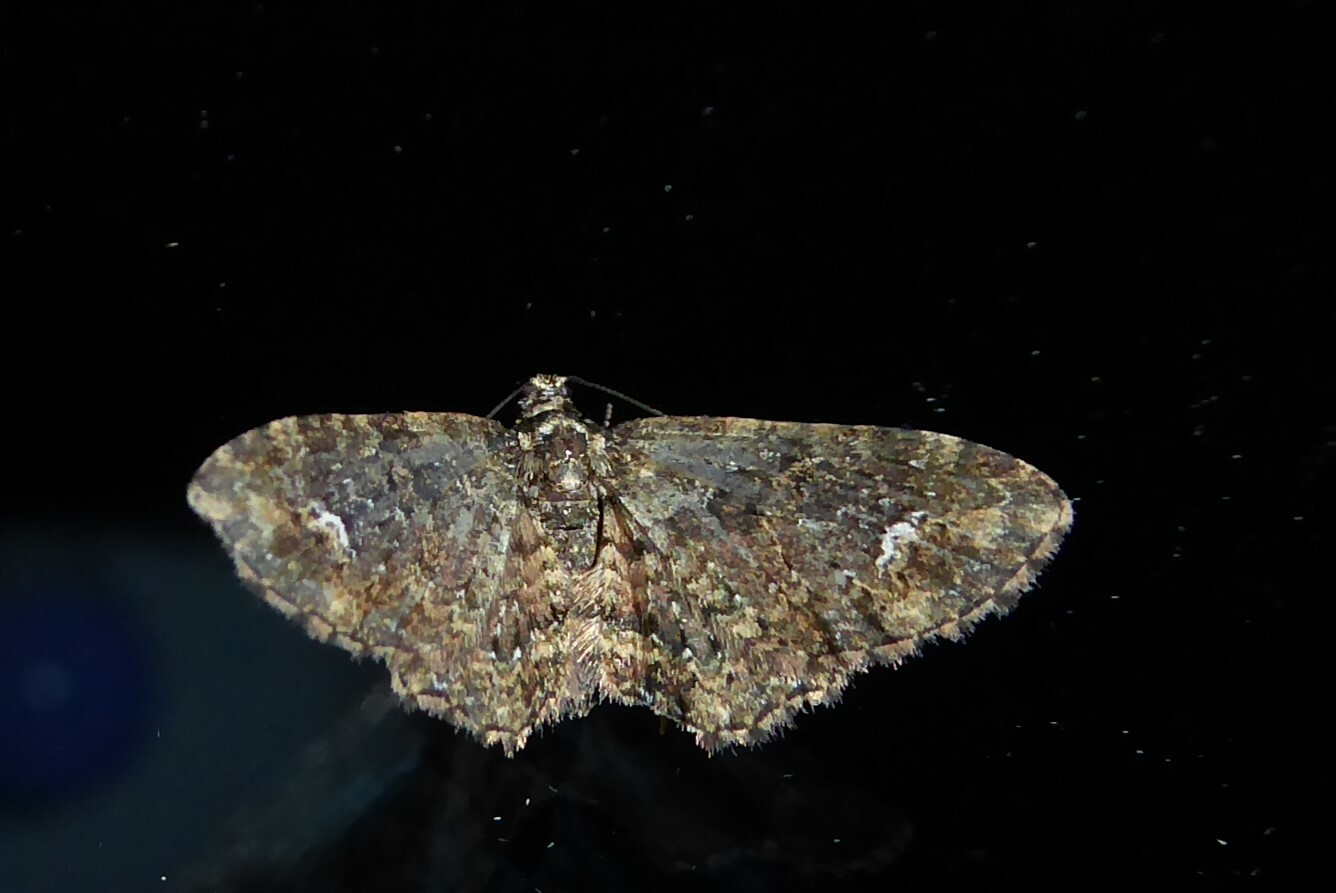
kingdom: Animalia
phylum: Arthropoda
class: Insecta
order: Lepidoptera
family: Geometridae
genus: Pasiphilodes
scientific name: Pasiphilodes testulata
